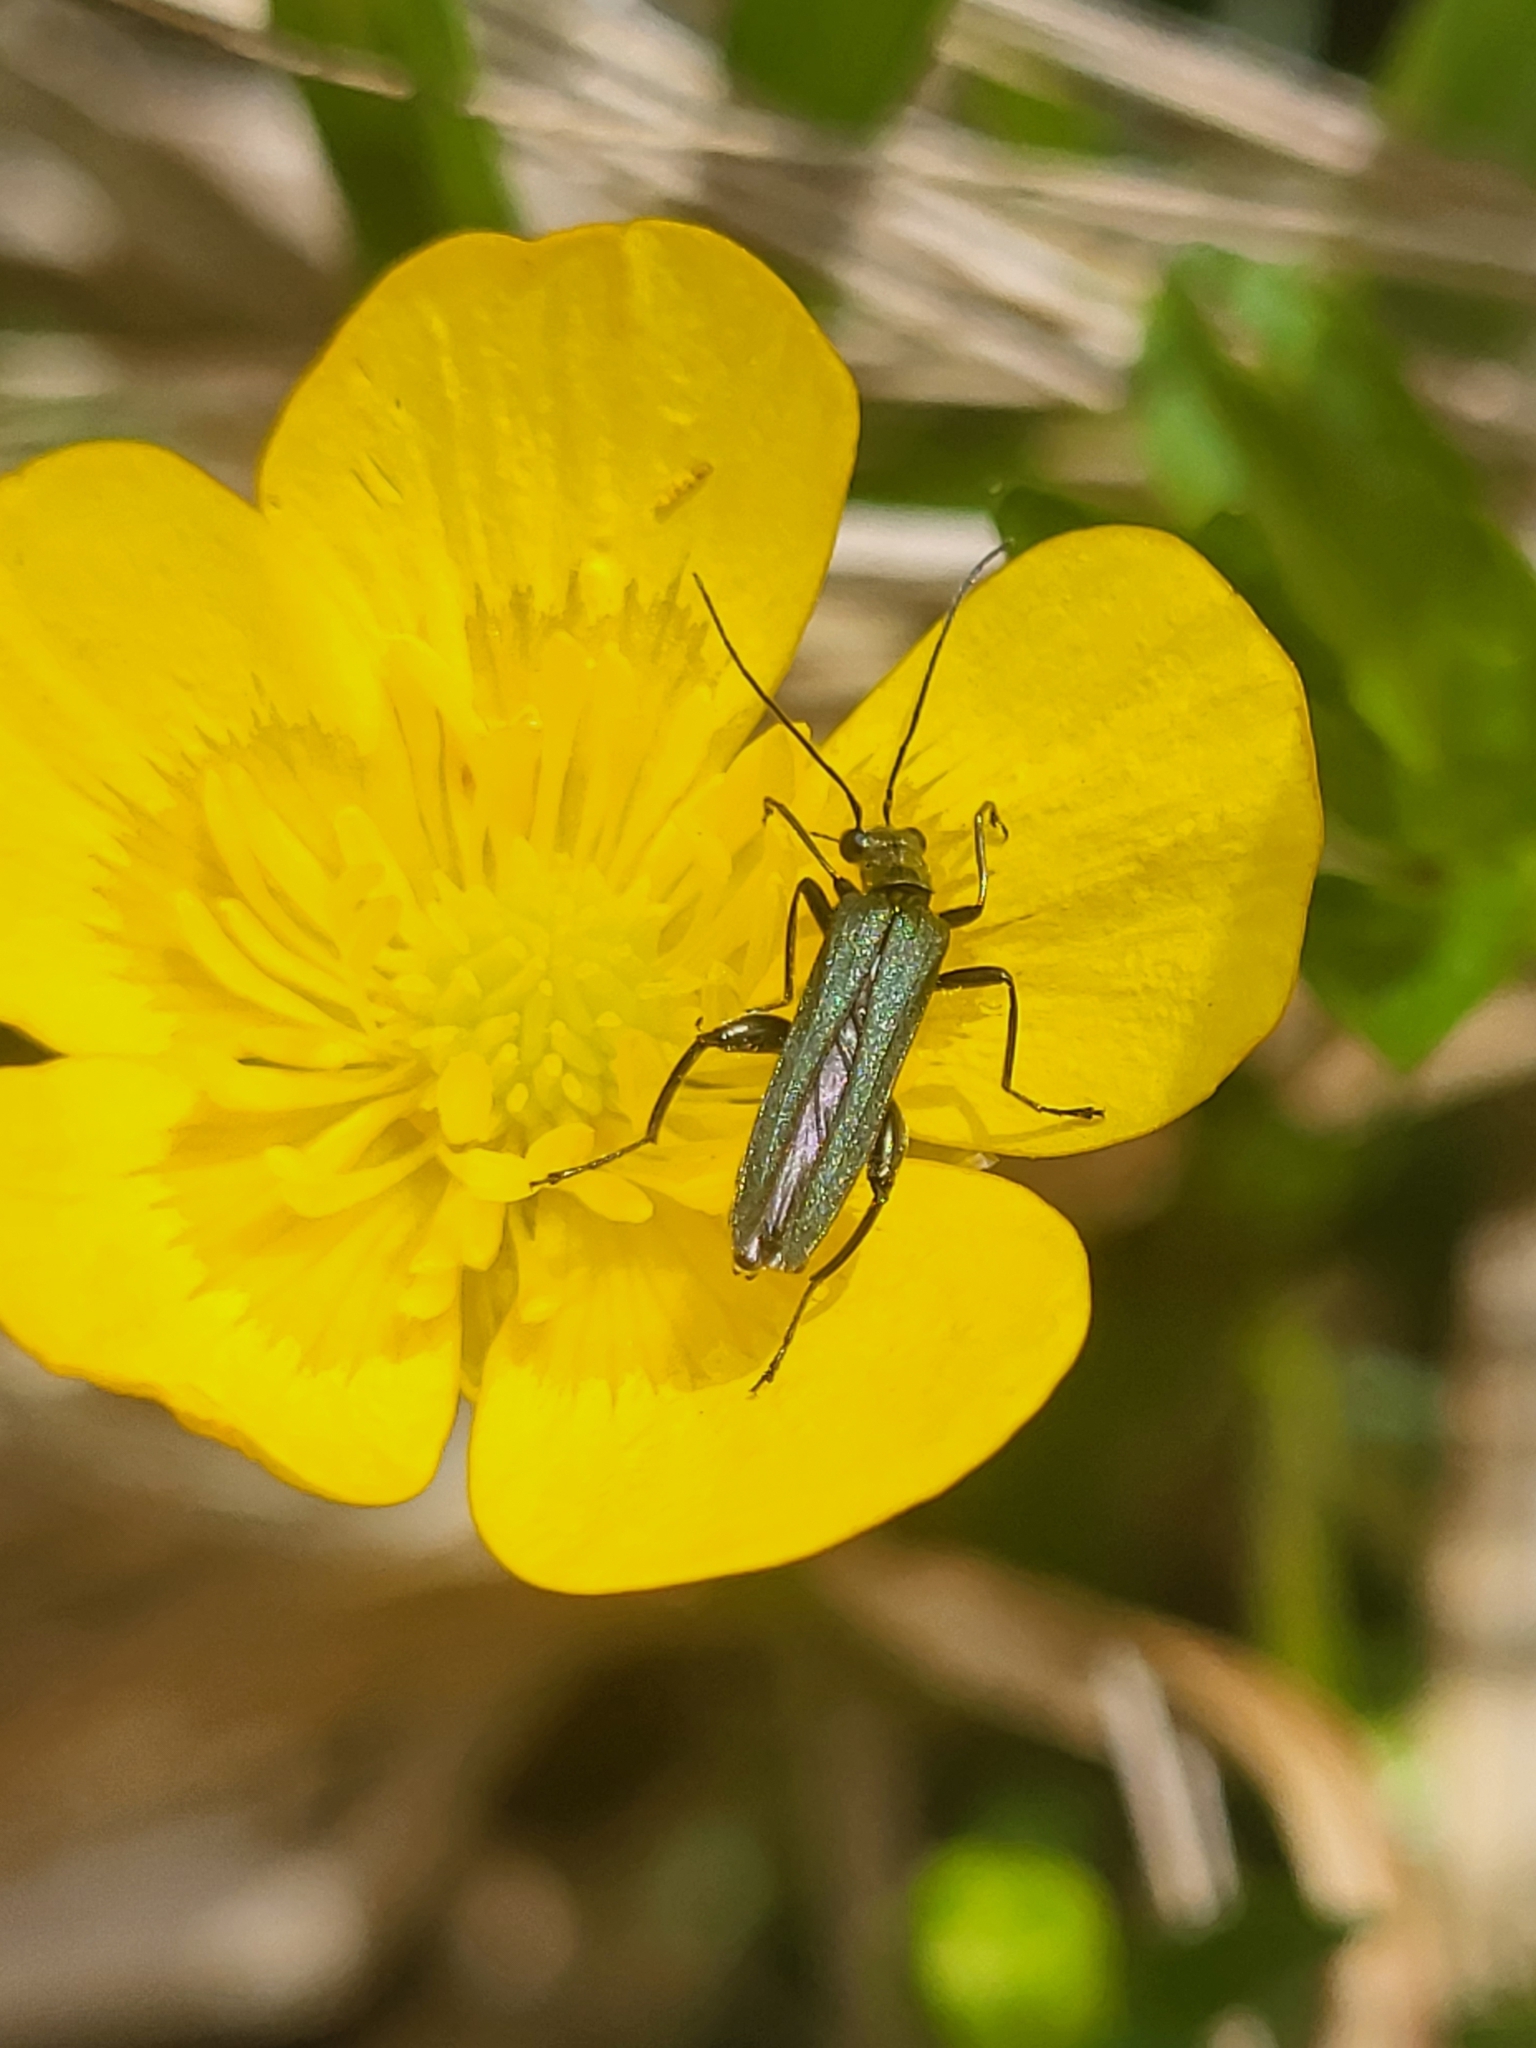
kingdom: Animalia
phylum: Arthropoda
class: Insecta
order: Coleoptera
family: Oedemeridae
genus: Oedemera
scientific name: Oedemera virescens
